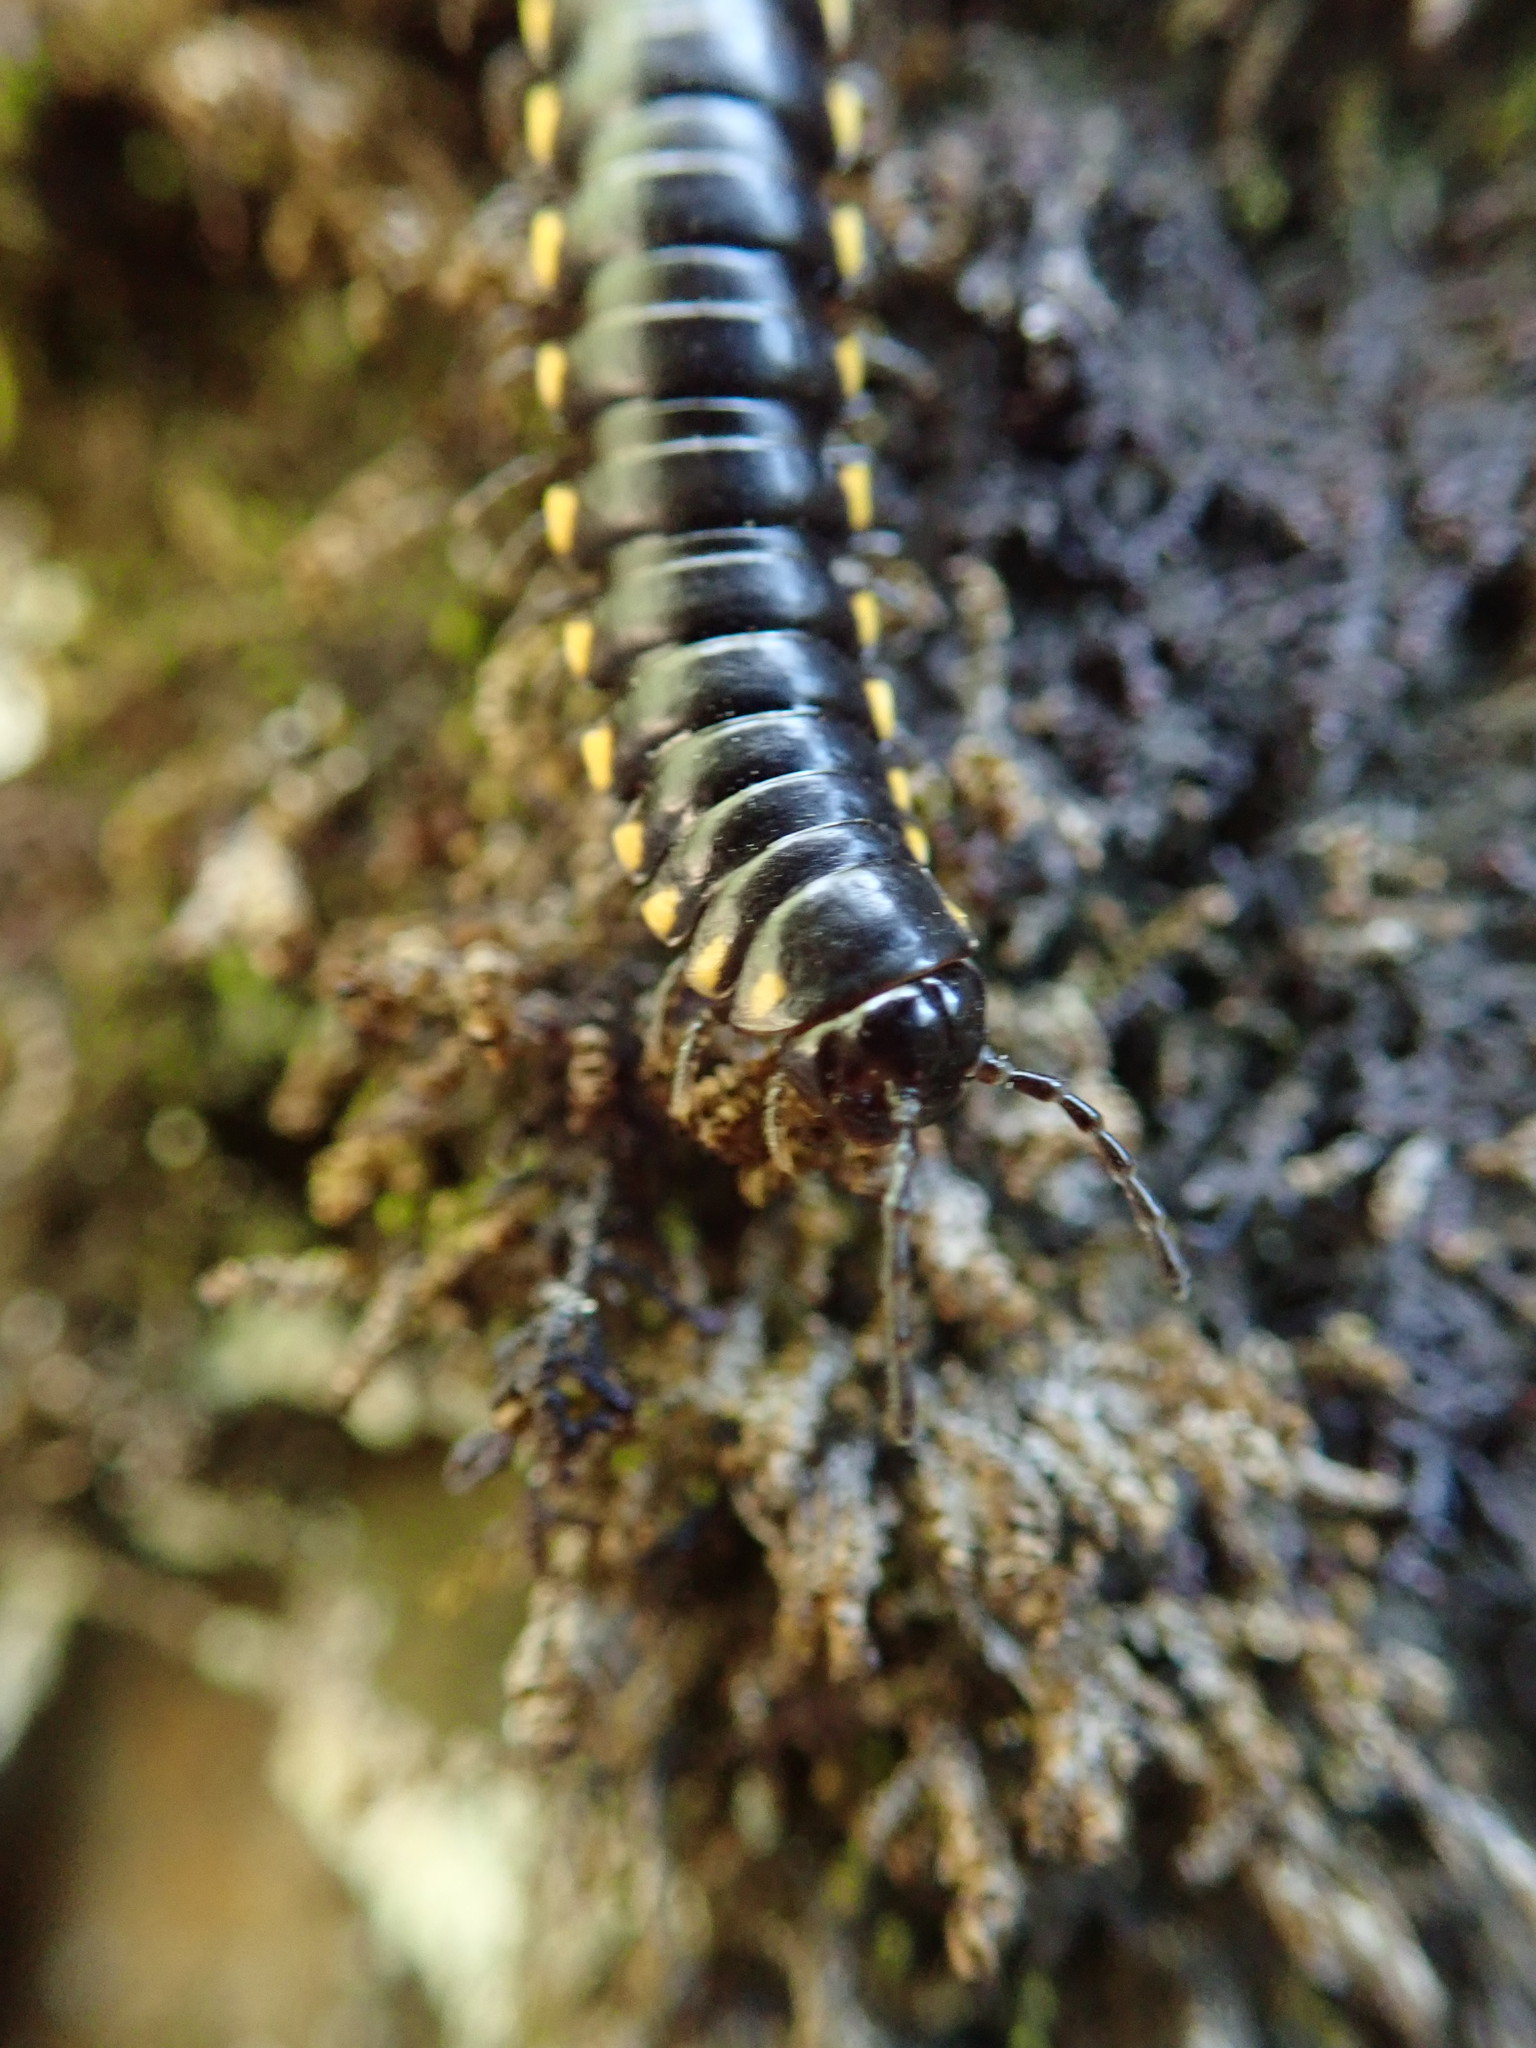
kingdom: Animalia
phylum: Arthropoda
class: Diplopoda
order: Polydesmida
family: Xystodesmidae
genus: Harpaphe
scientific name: Harpaphe haydeniana
